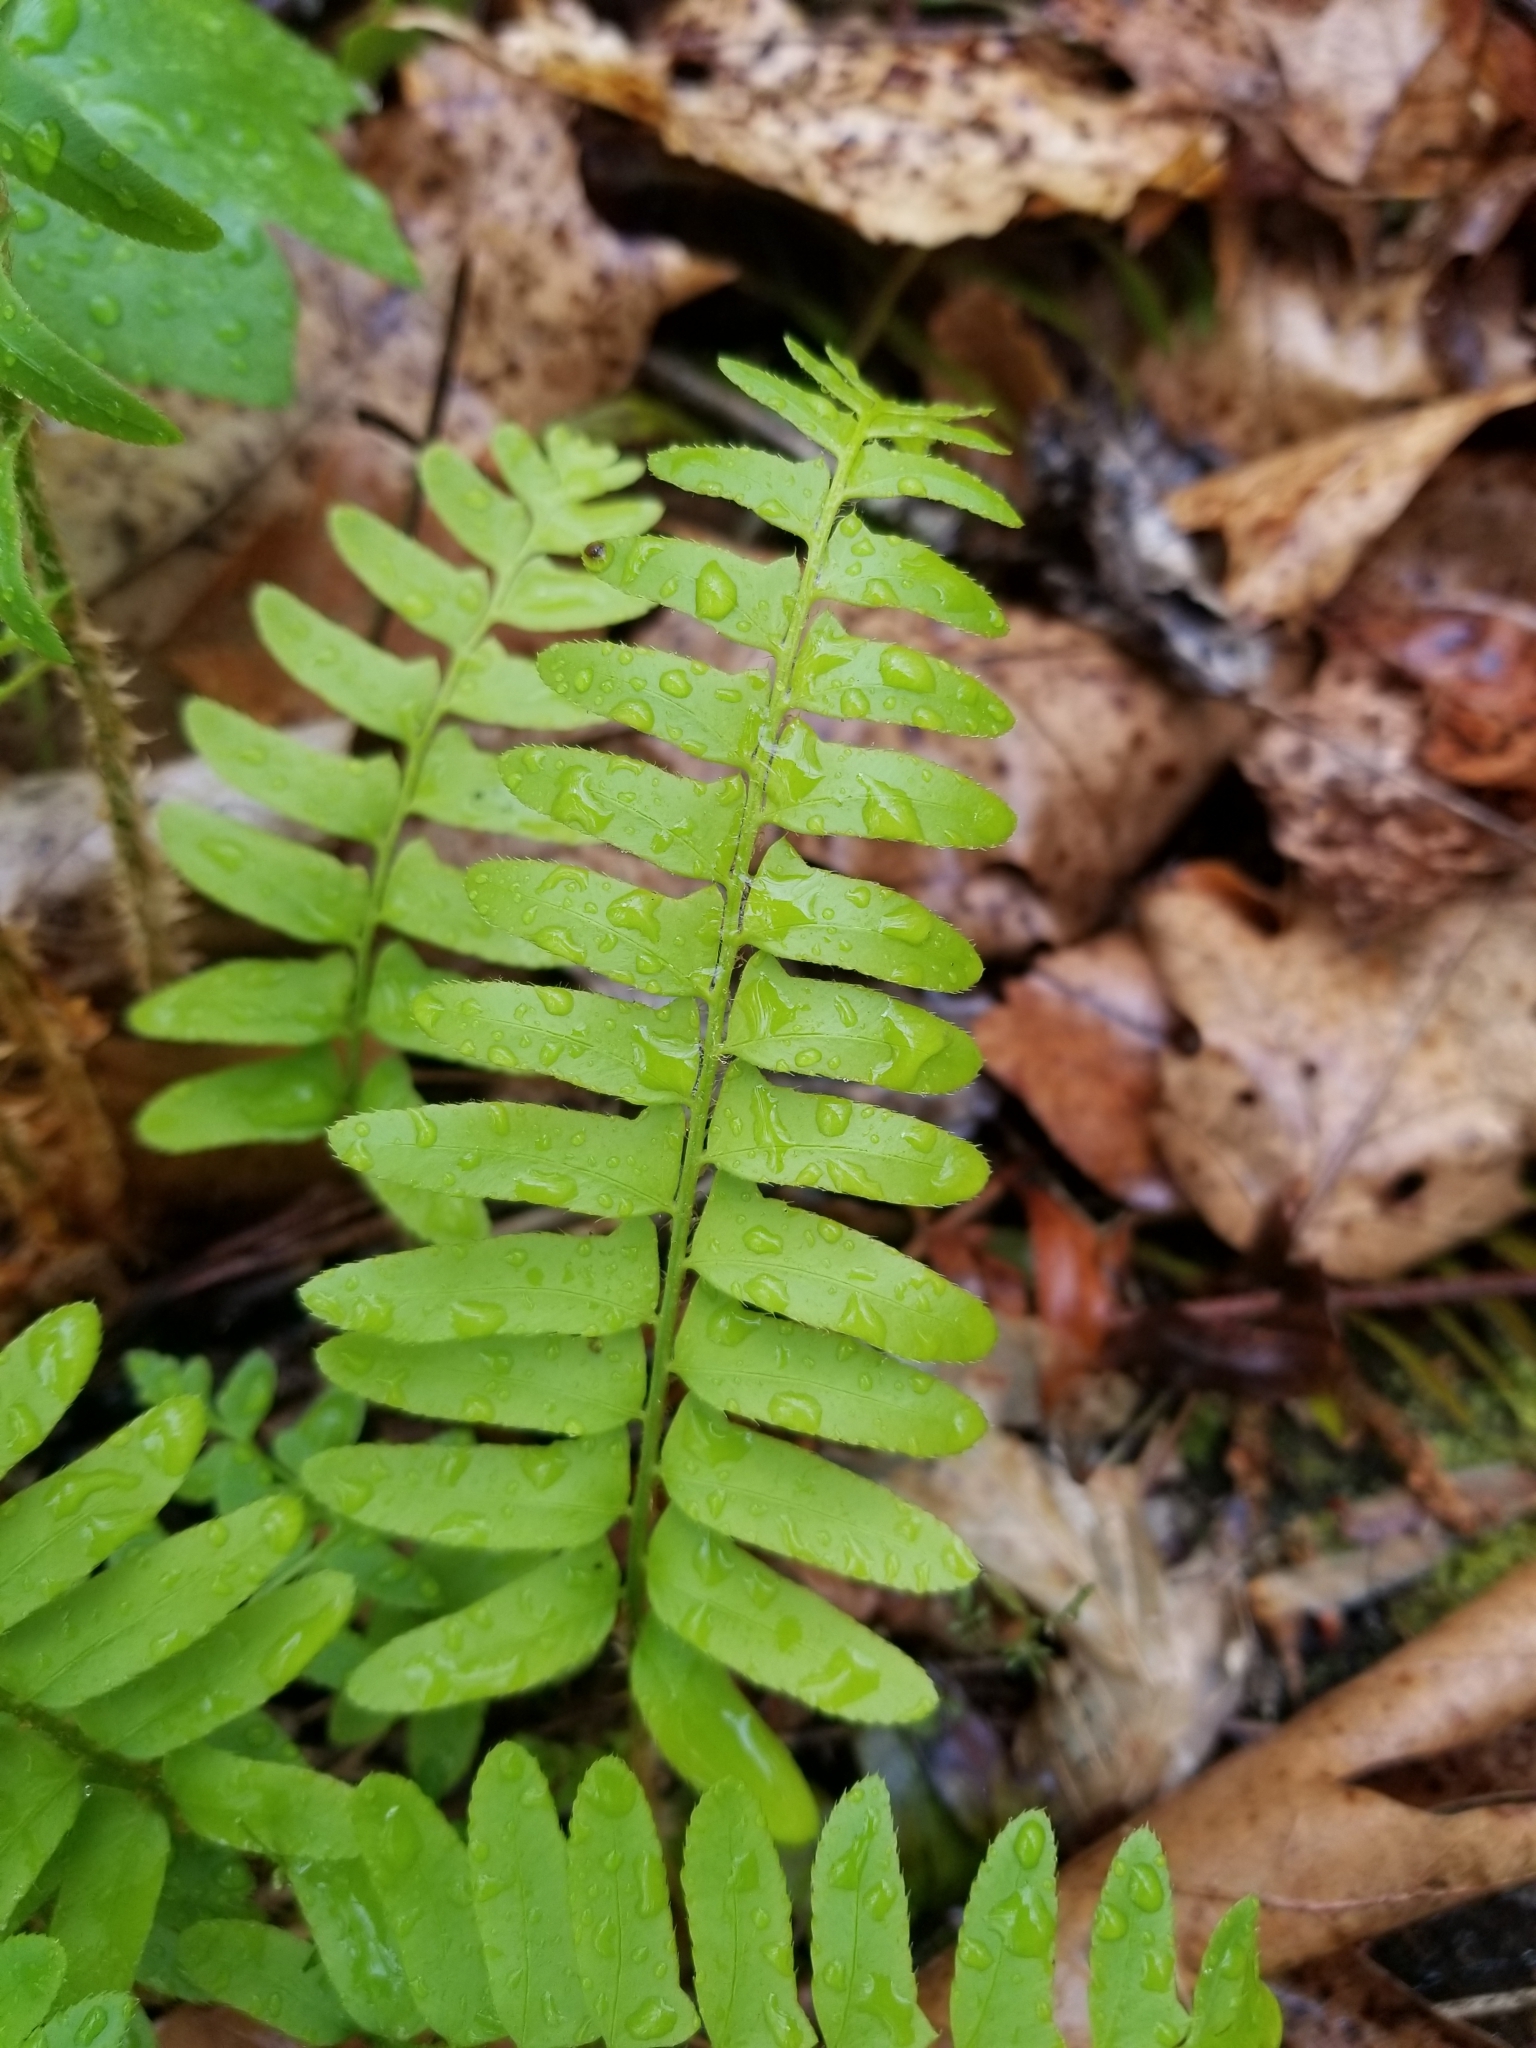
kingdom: Plantae
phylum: Tracheophyta
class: Polypodiopsida
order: Polypodiales
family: Dryopteridaceae
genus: Polystichum
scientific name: Polystichum acrostichoides
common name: Christmas fern
